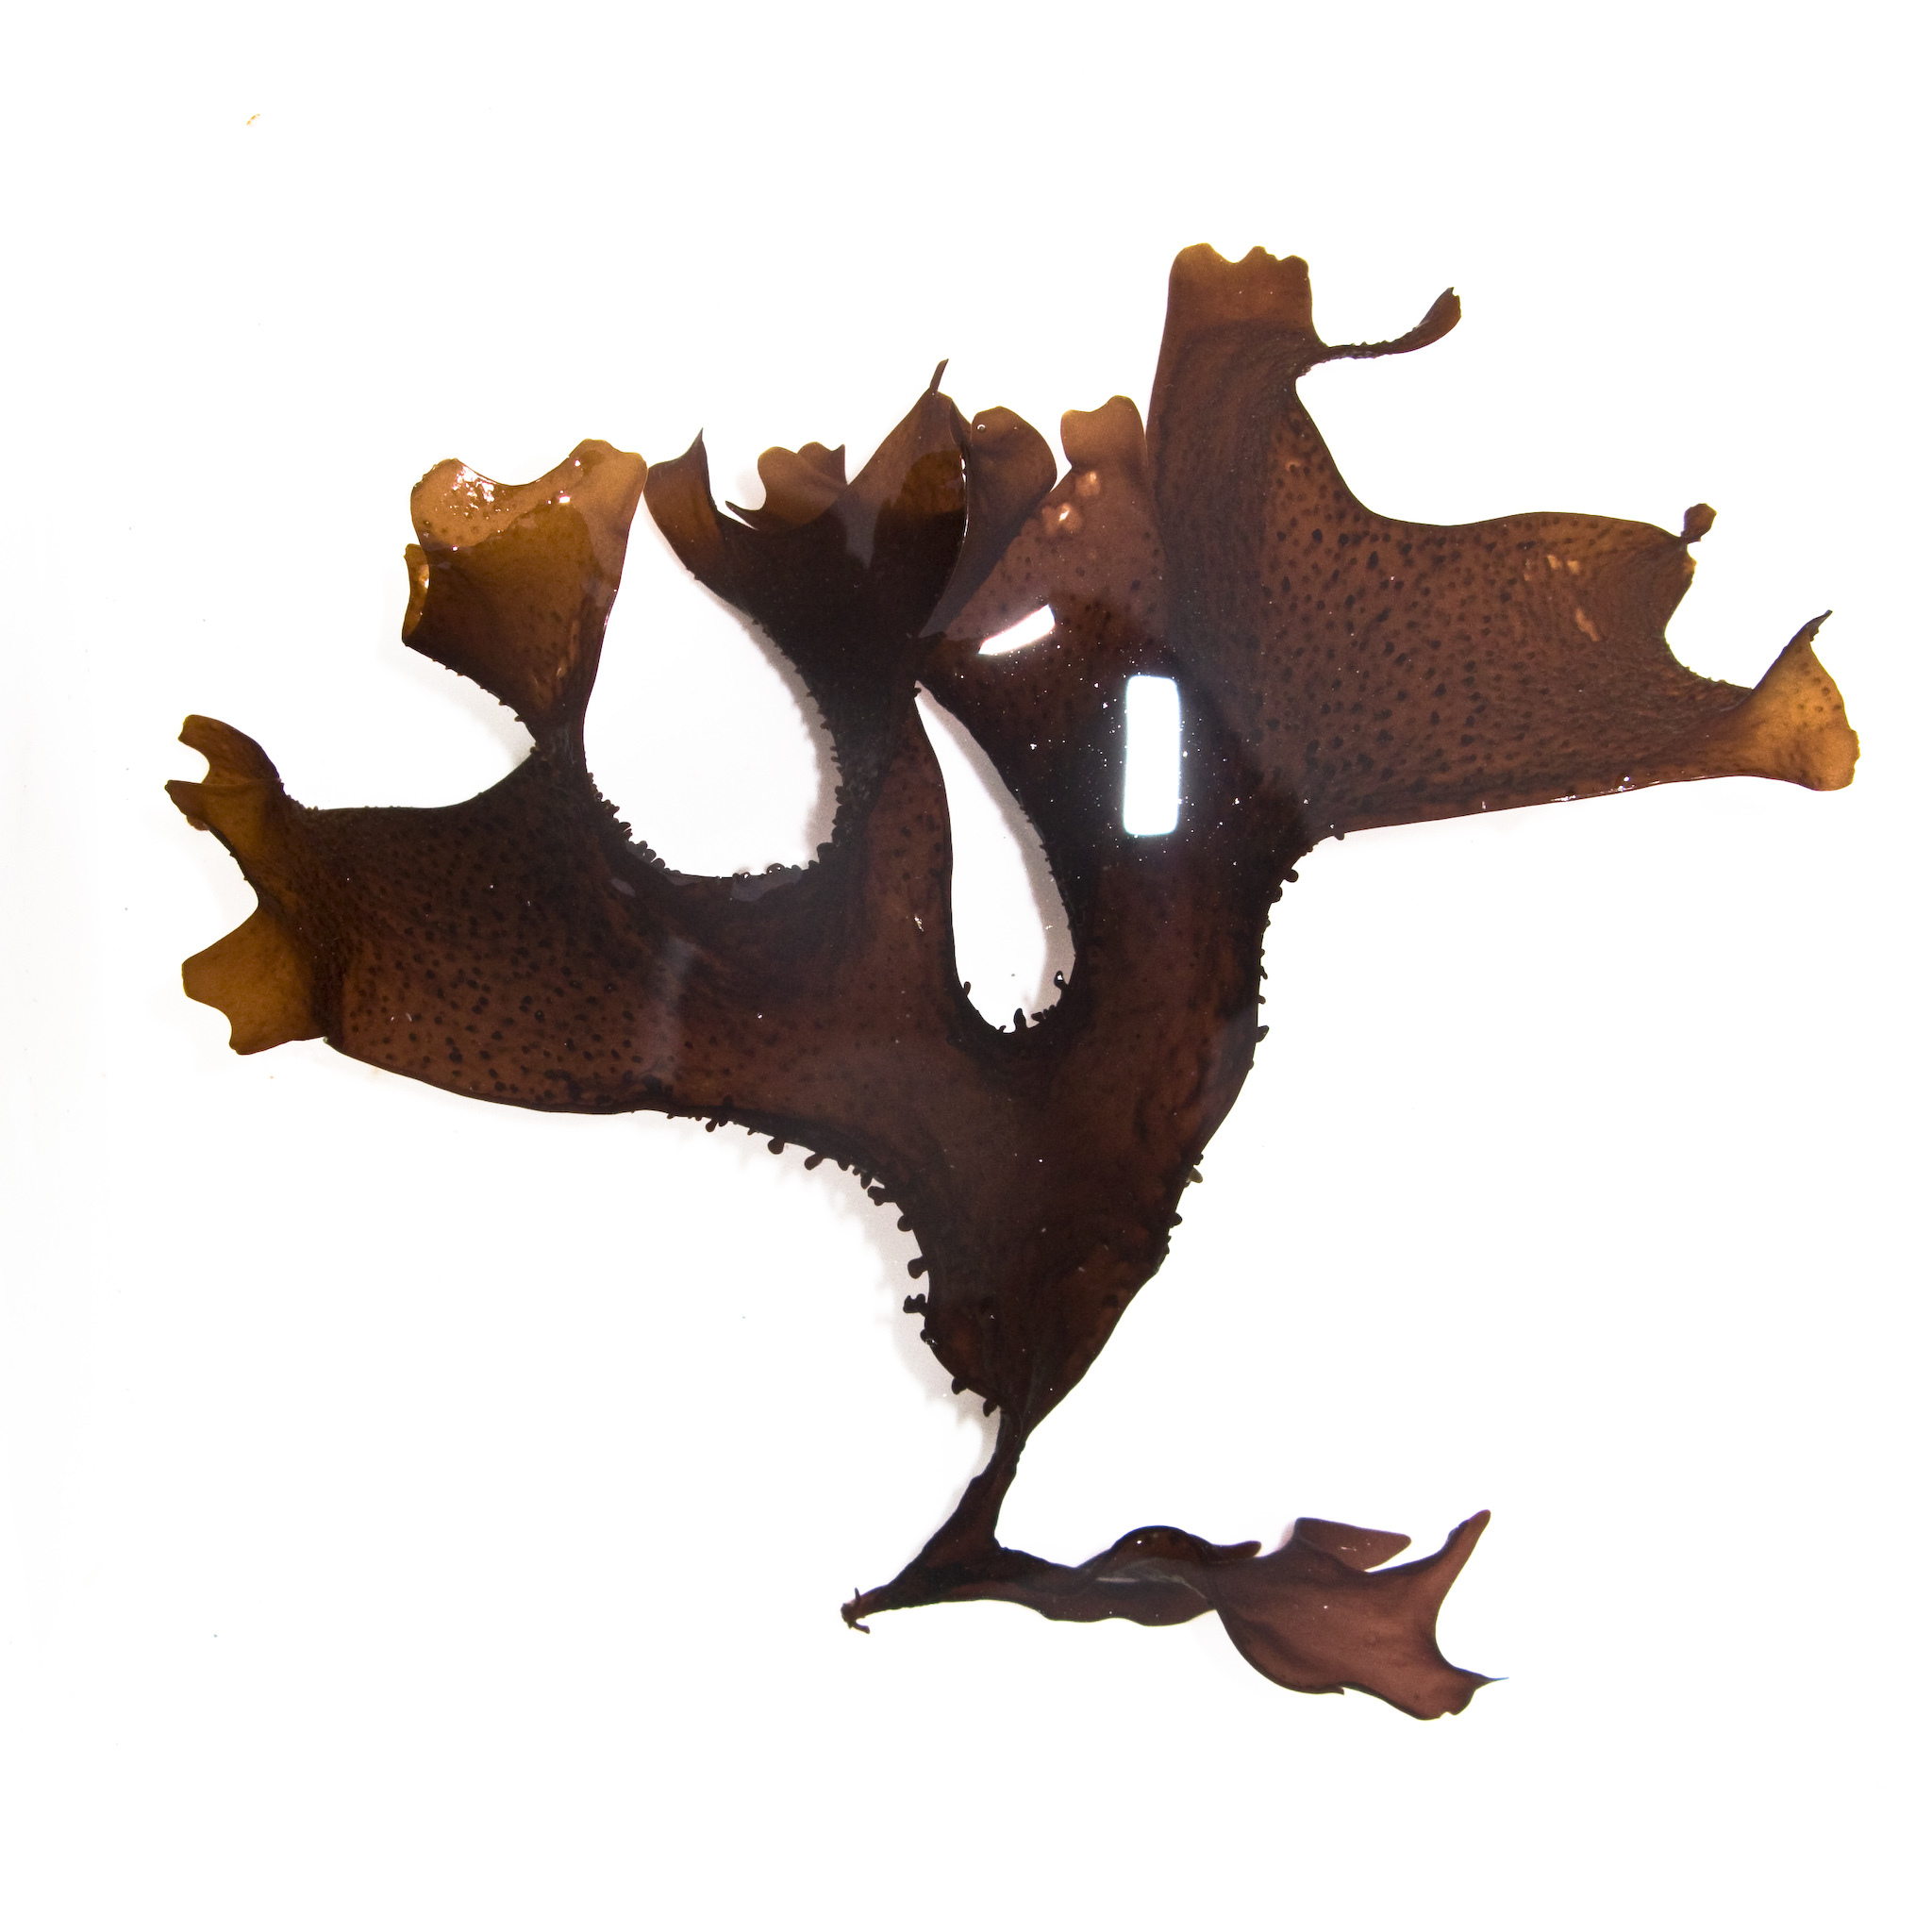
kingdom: Plantae
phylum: Rhodophyta
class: Florideophyceae
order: Gigartinales
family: Phyllophoraceae
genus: Mastocarpus
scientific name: Mastocarpus papillatus
